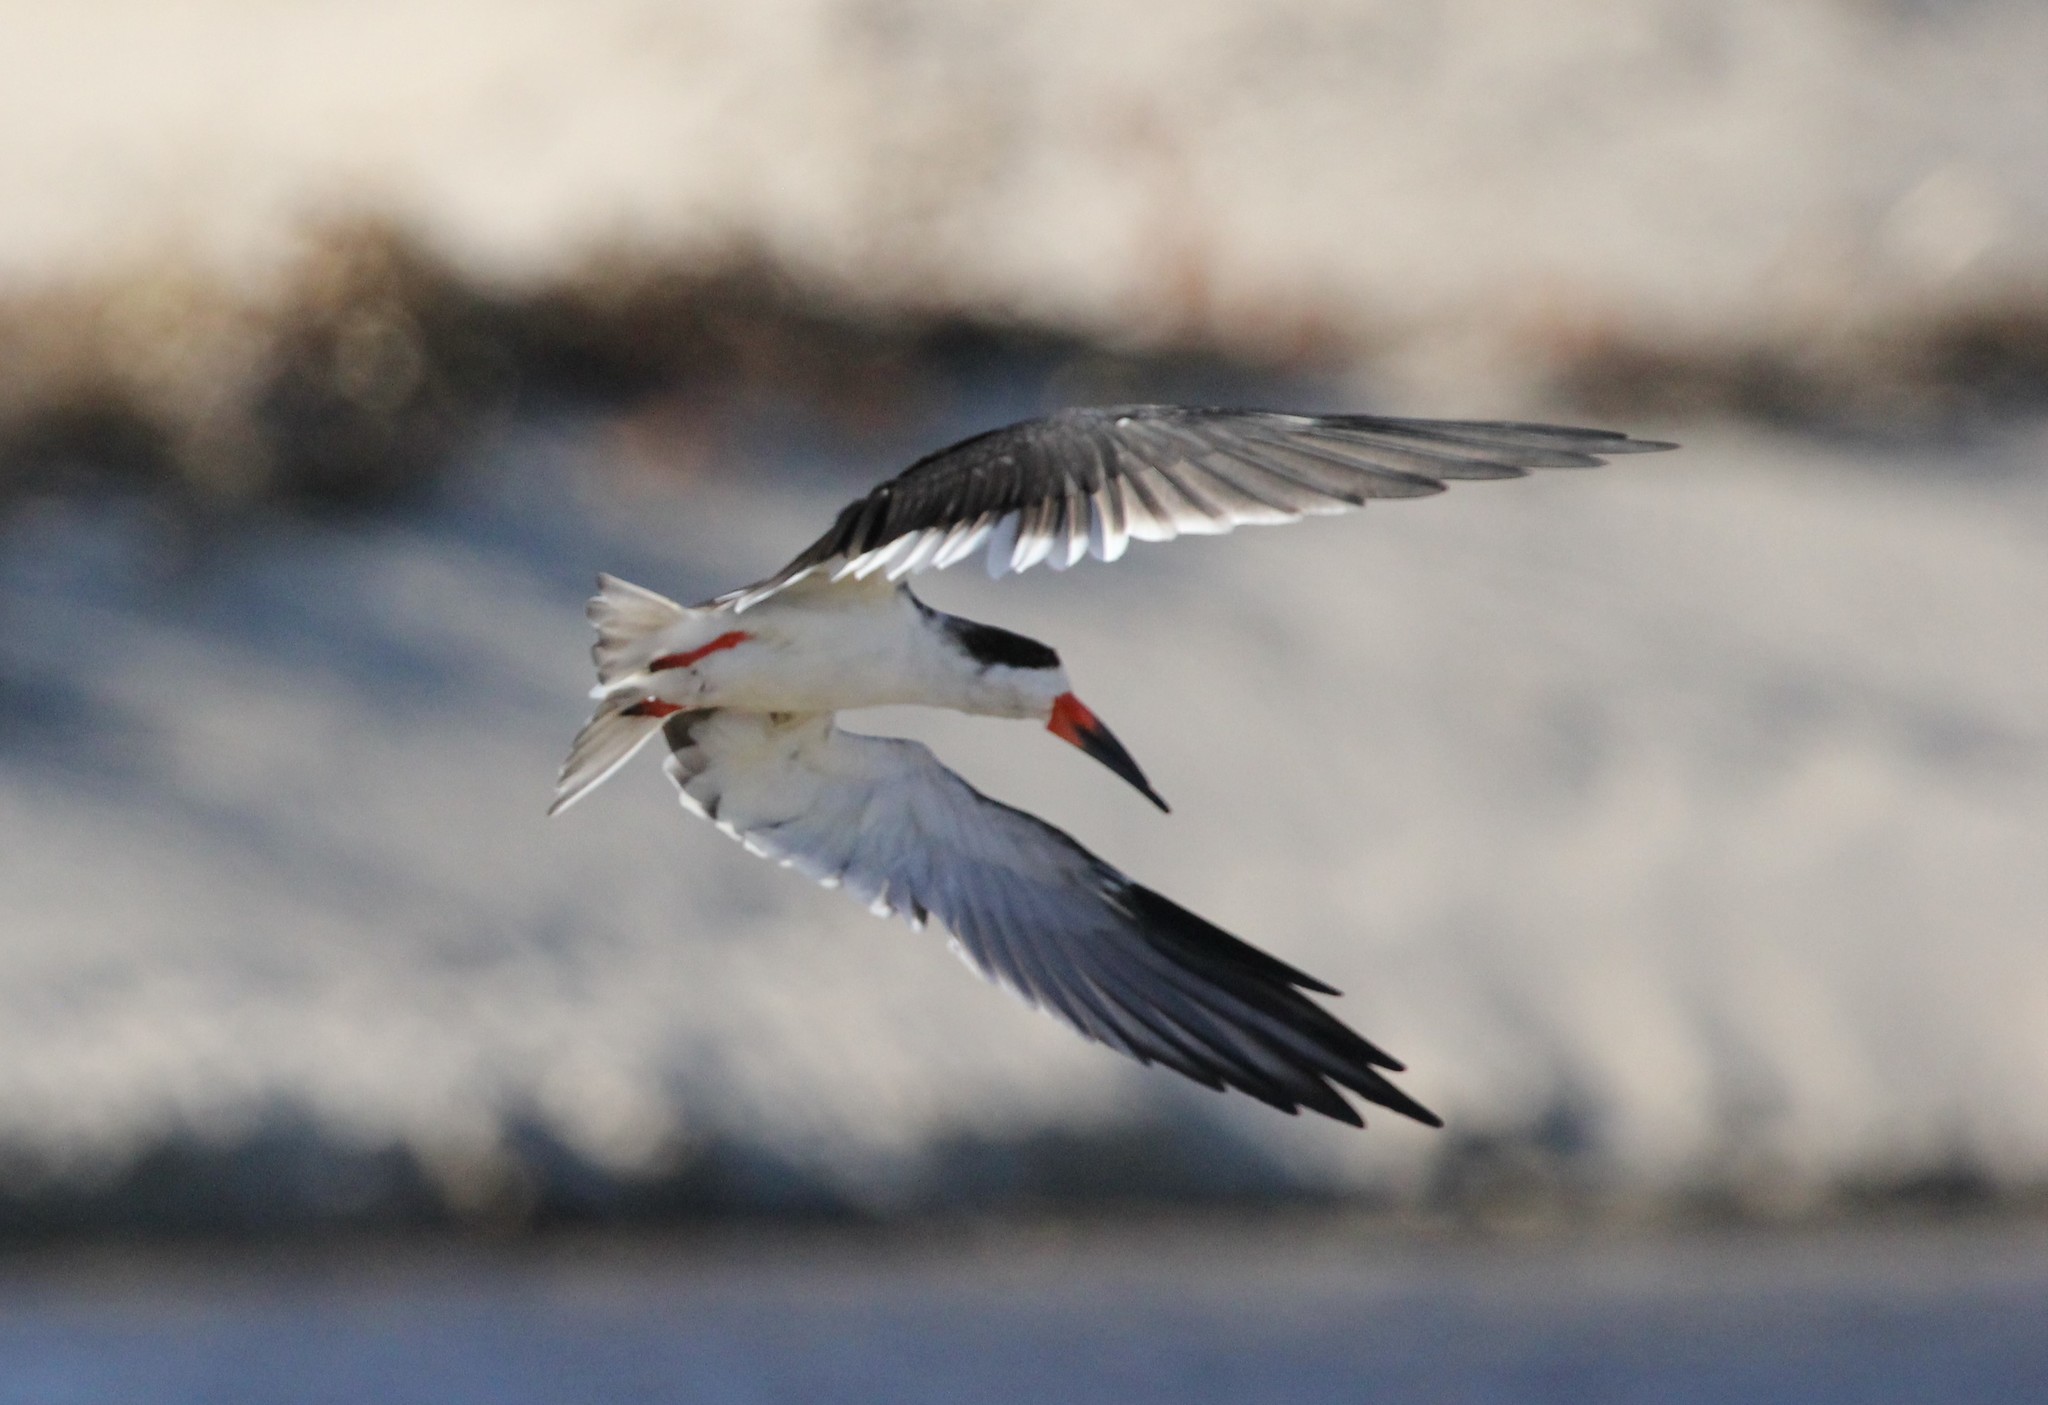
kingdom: Animalia
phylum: Chordata
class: Aves
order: Charadriiformes
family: Laridae
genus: Rynchops
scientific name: Rynchops niger
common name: Black skimmer
